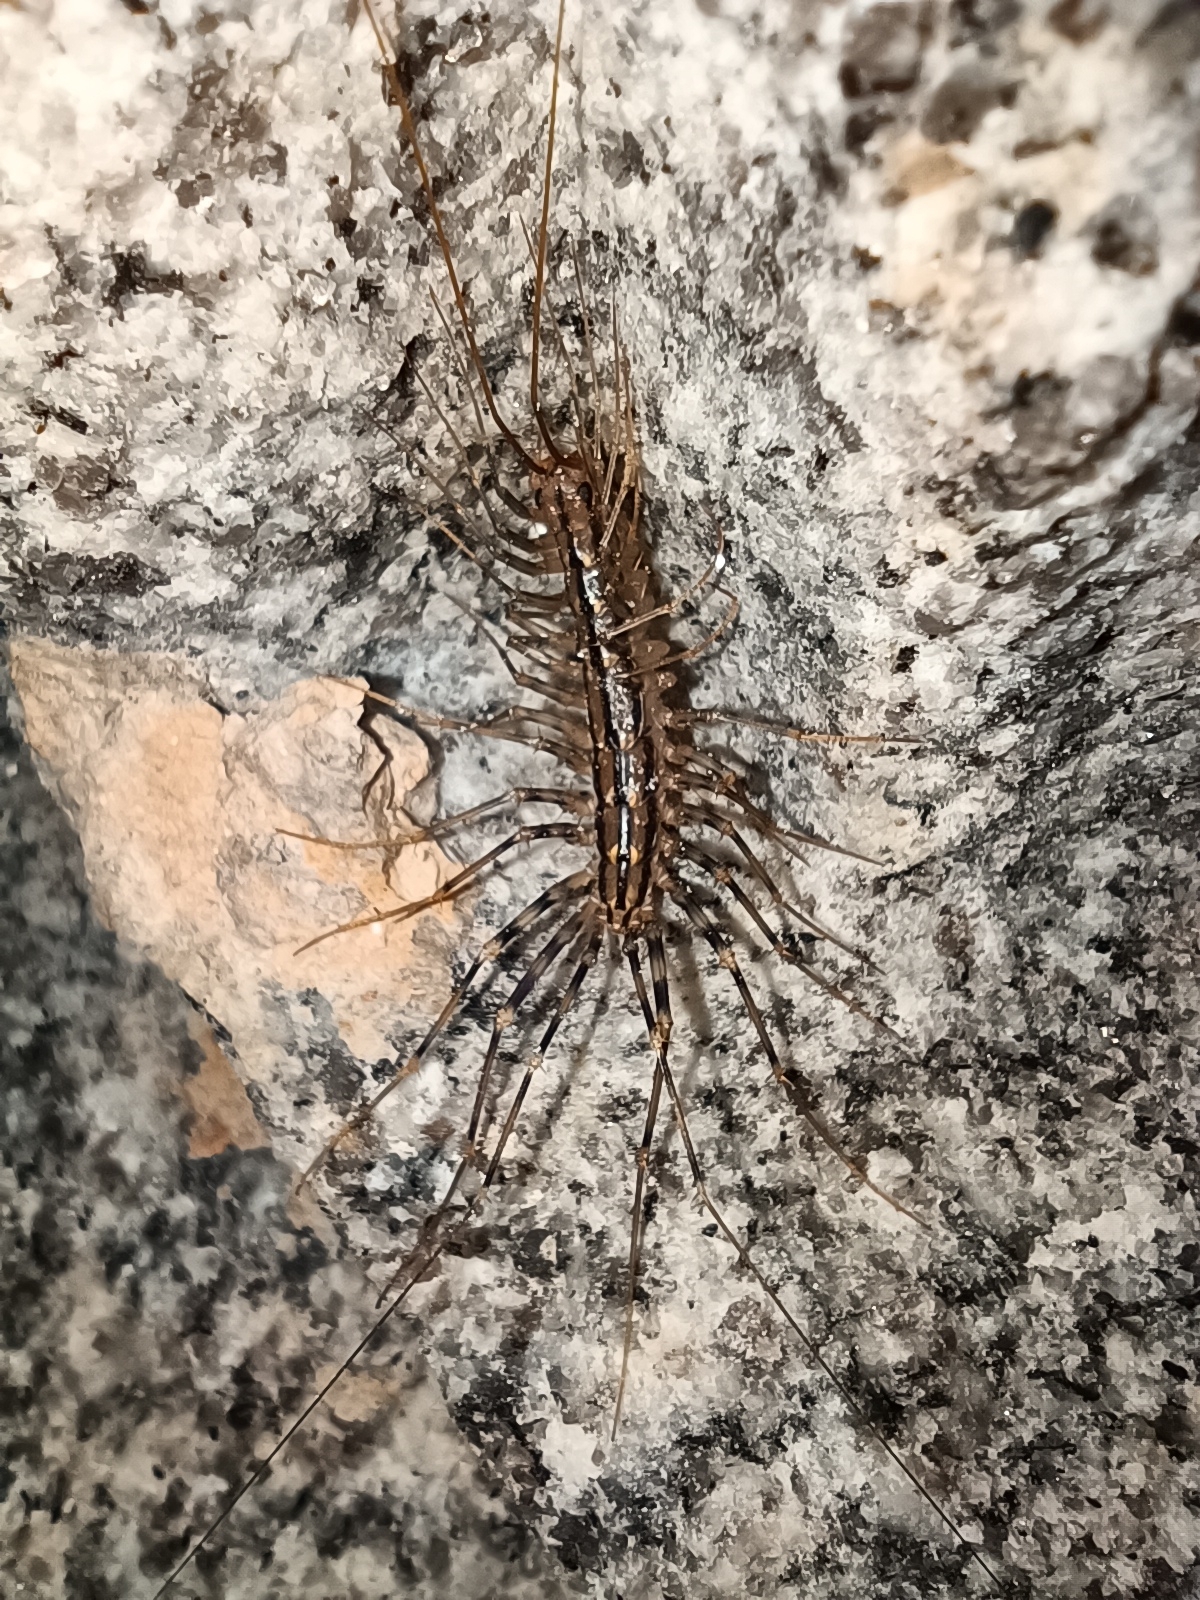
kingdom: Animalia
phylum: Arthropoda
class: Chilopoda
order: Scutigeromorpha
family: Scutigeridae
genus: Scutigera
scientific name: Scutigera coleoptrata
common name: House centipede
